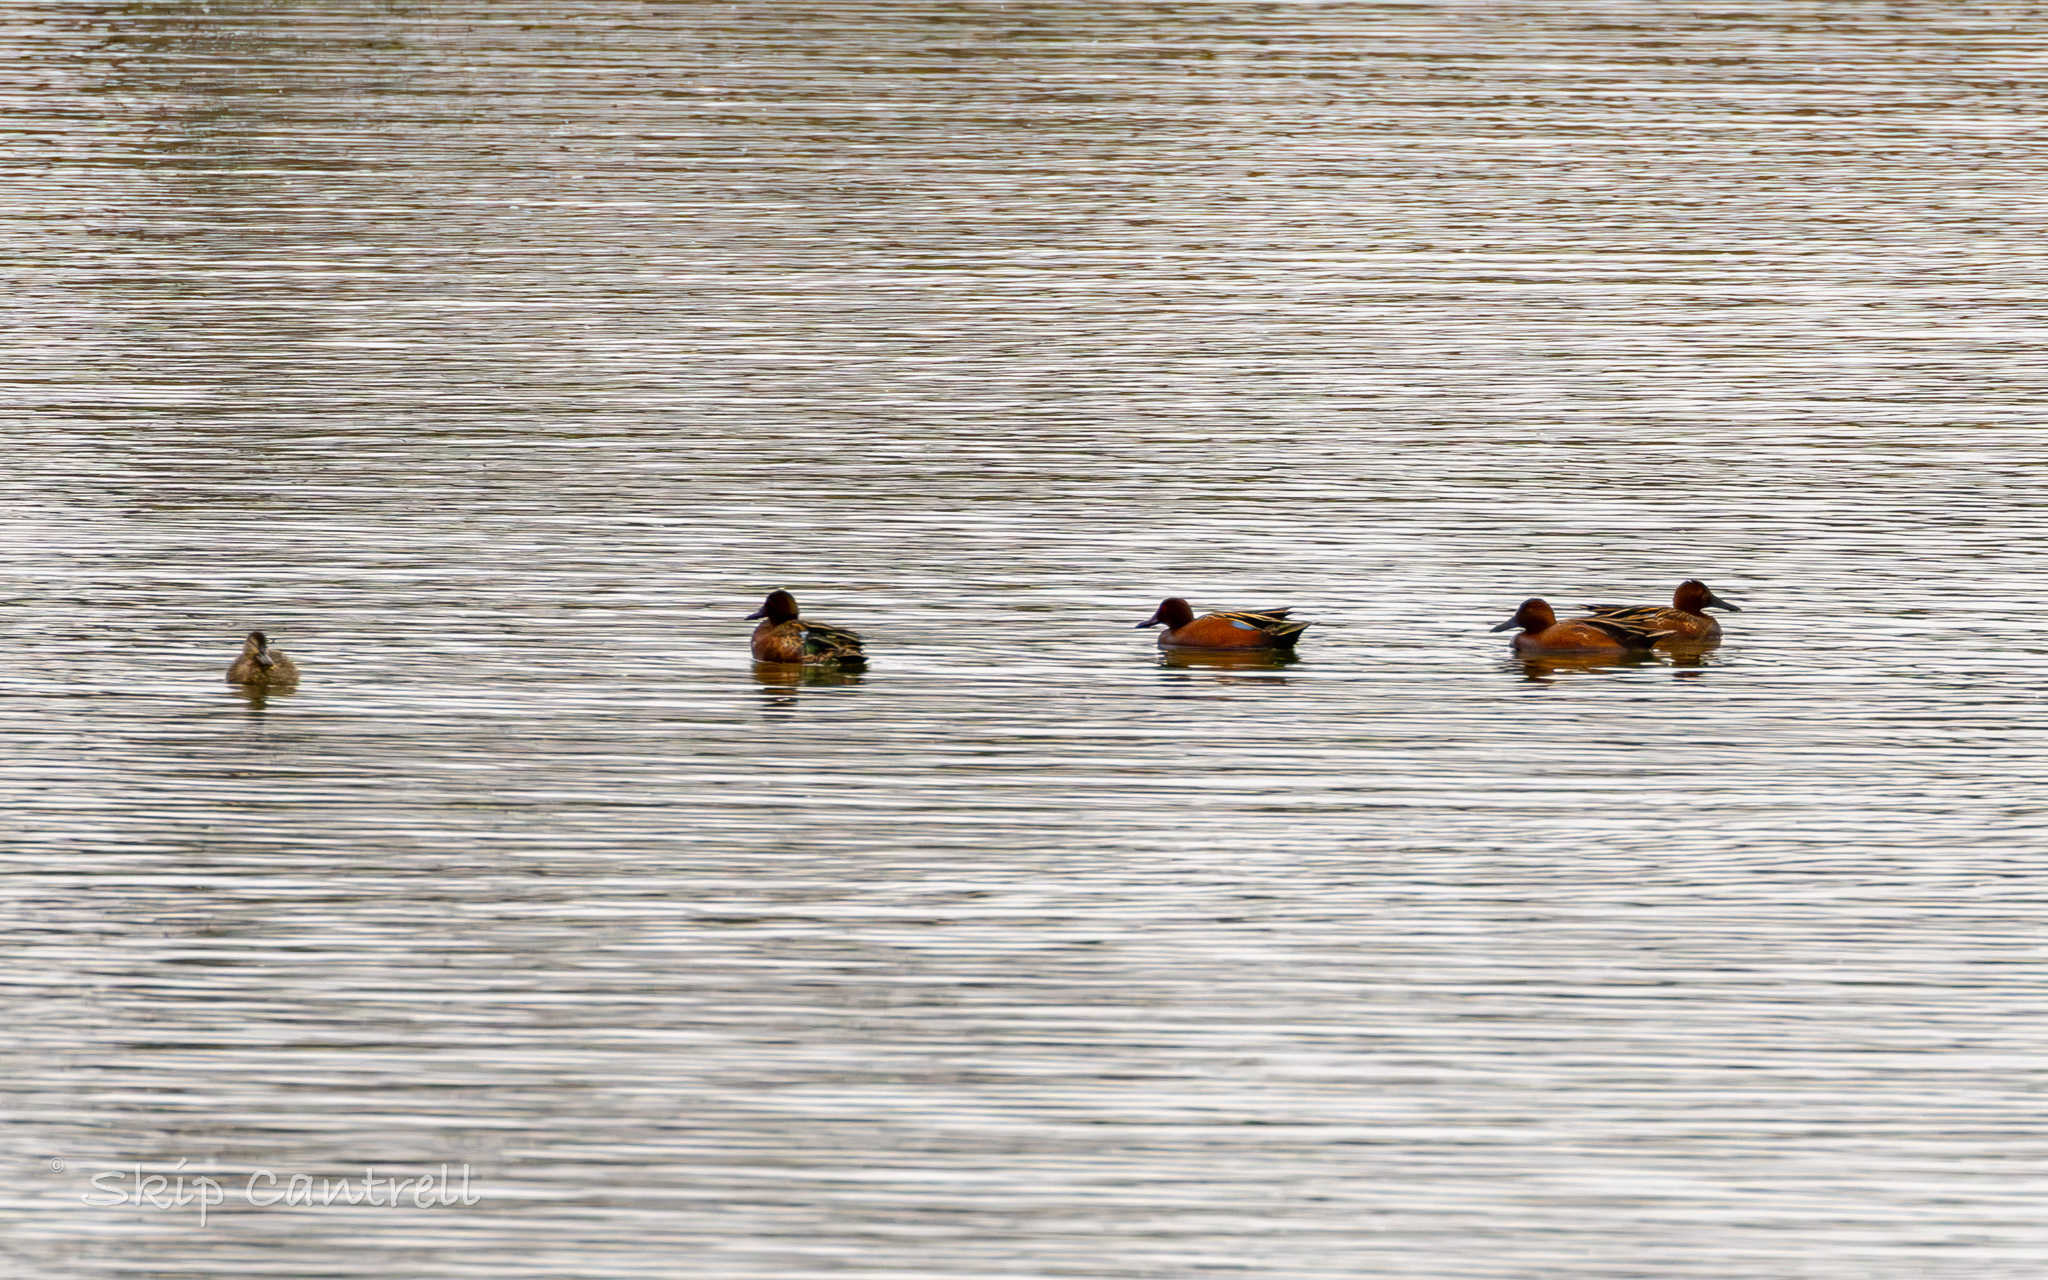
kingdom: Animalia
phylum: Chordata
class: Aves
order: Anseriformes
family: Anatidae
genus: Spatula
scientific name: Spatula cyanoptera
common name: Cinnamon teal
